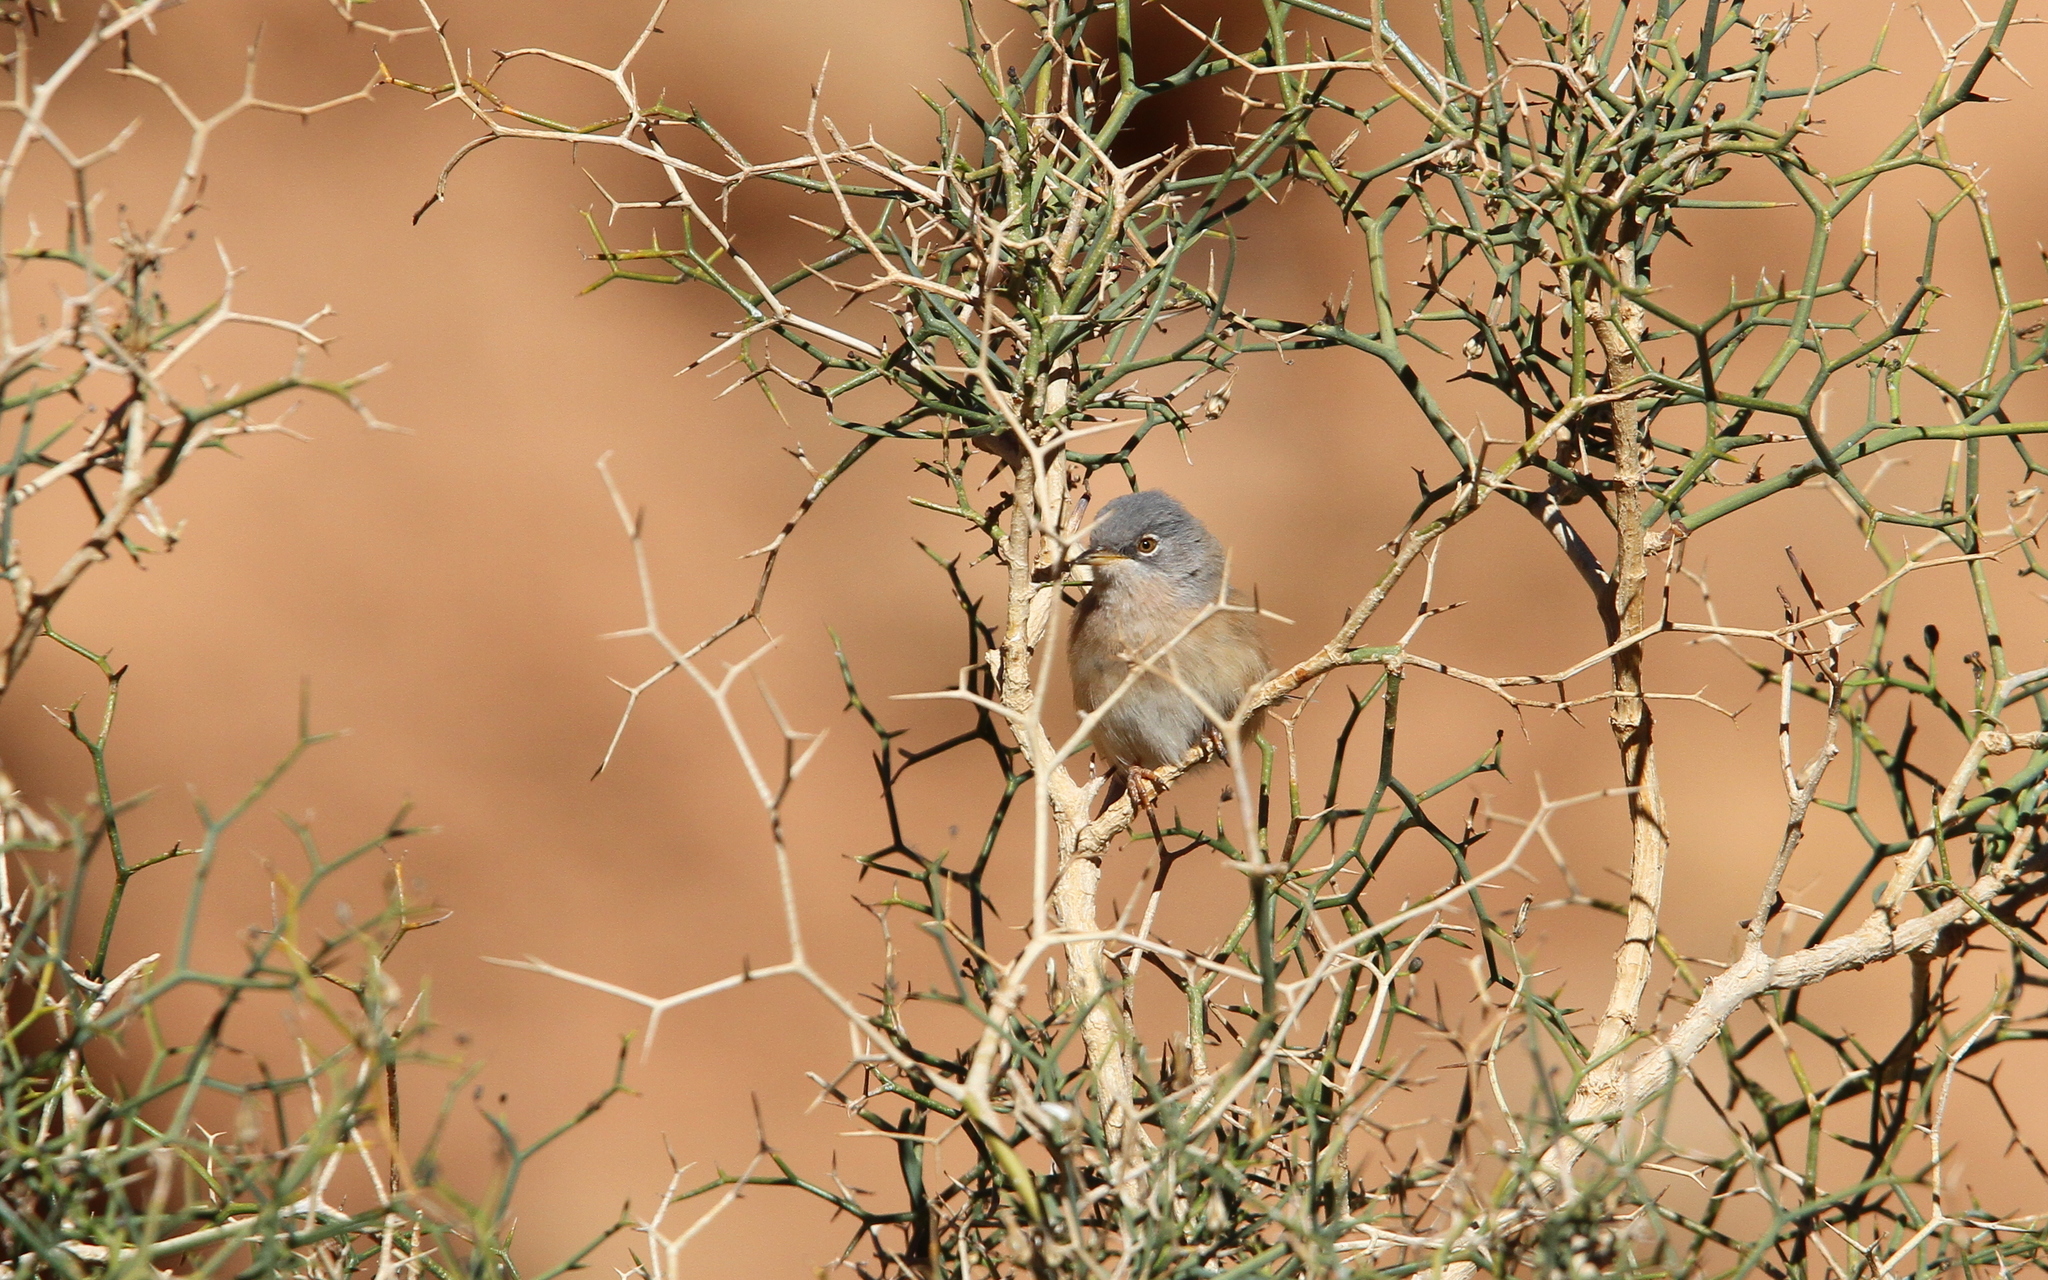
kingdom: Animalia
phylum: Chordata
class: Aves
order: Passeriformes
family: Sylviidae
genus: Sylvia
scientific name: Sylvia deserticola
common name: Tristram's warbler
